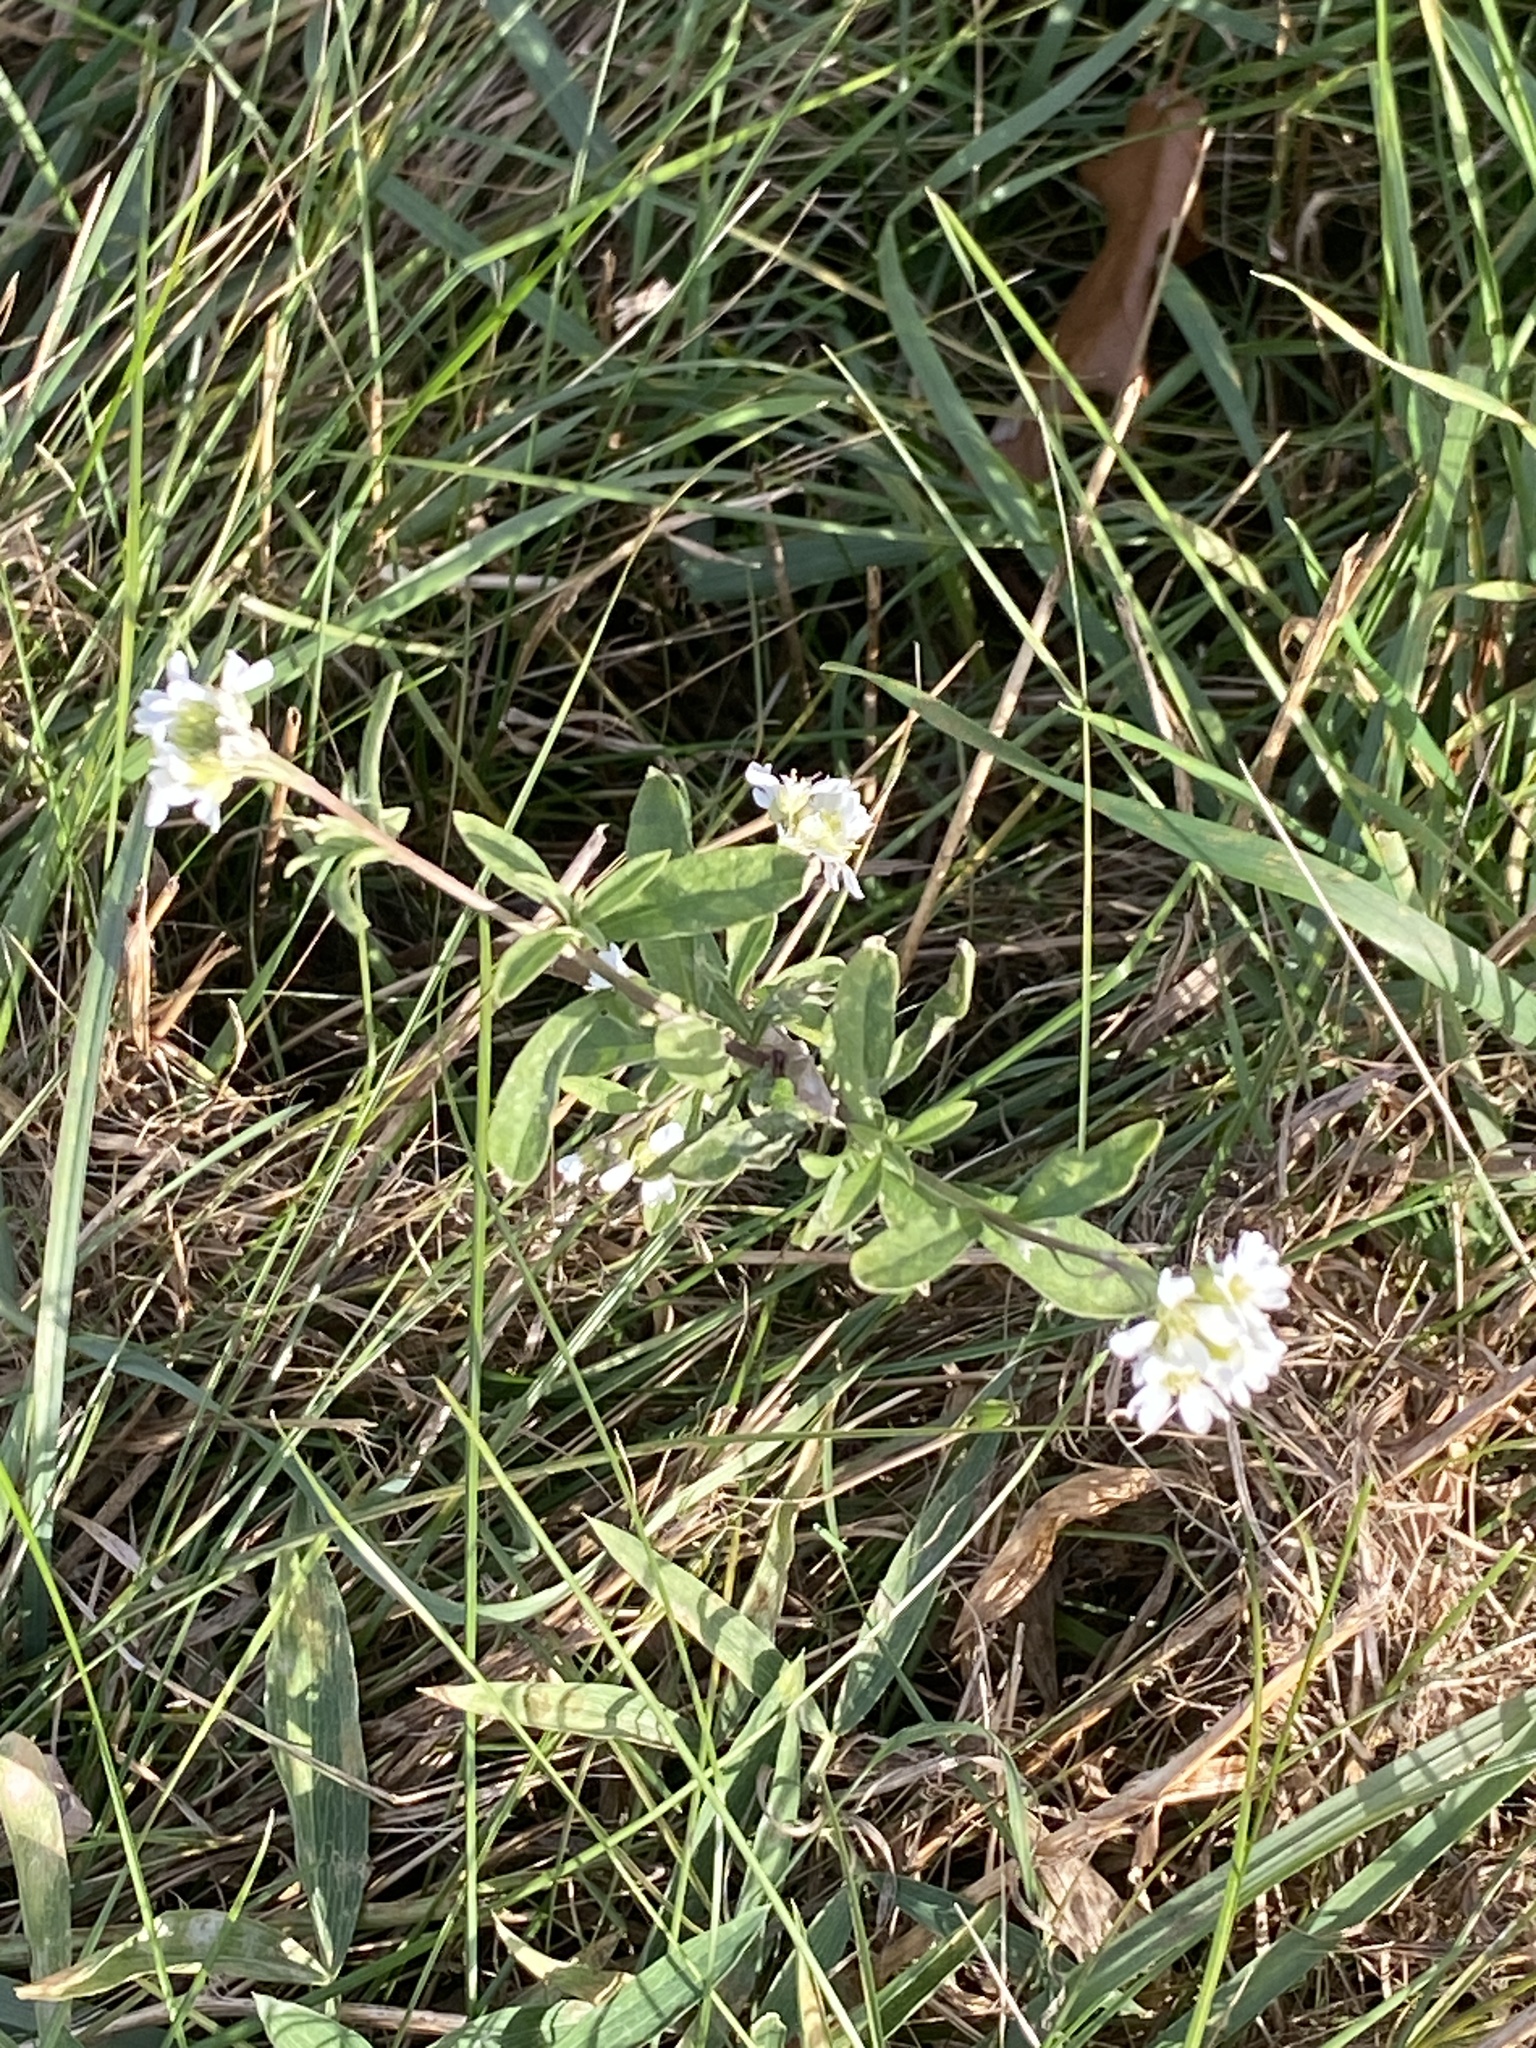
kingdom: Plantae
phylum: Tracheophyta
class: Magnoliopsida
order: Brassicales
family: Brassicaceae
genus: Berteroa
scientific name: Berteroa incana
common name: Hoary alison
